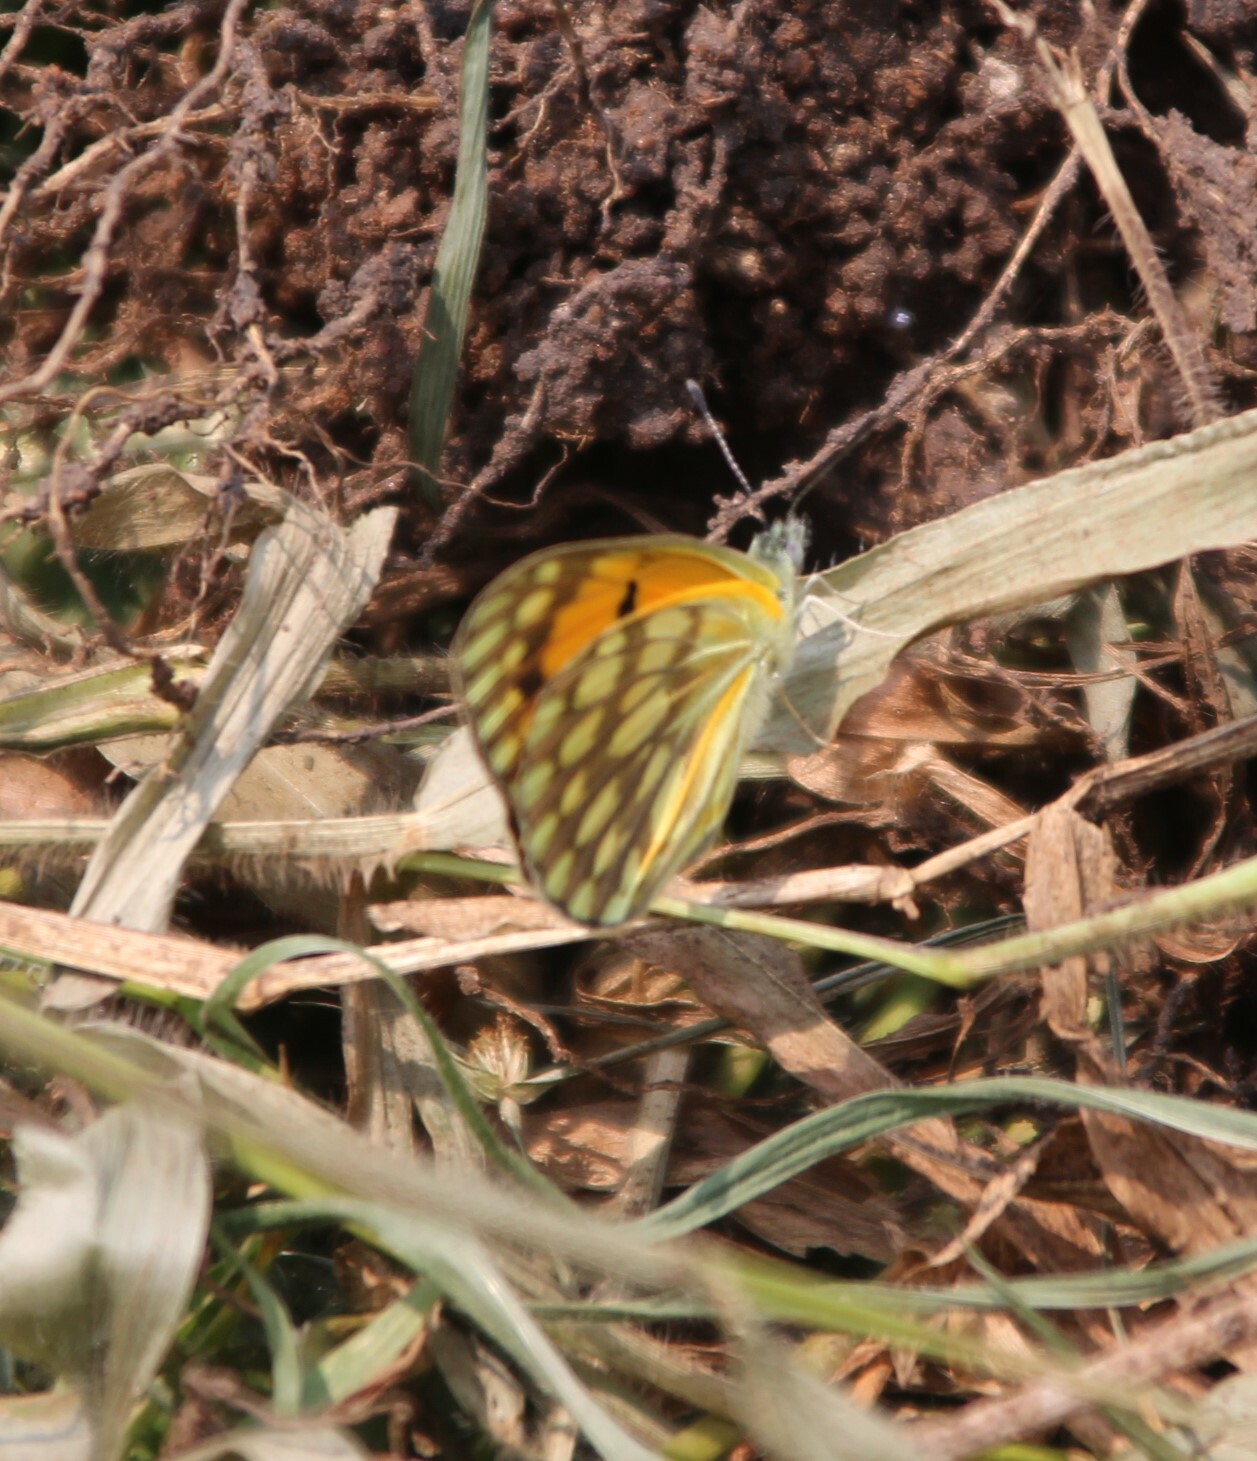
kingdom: Animalia
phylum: Arthropoda
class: Insecta
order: Lepidoptera
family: Pieridae
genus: Colotis
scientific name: Colotis aurigineus
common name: African golden arab
